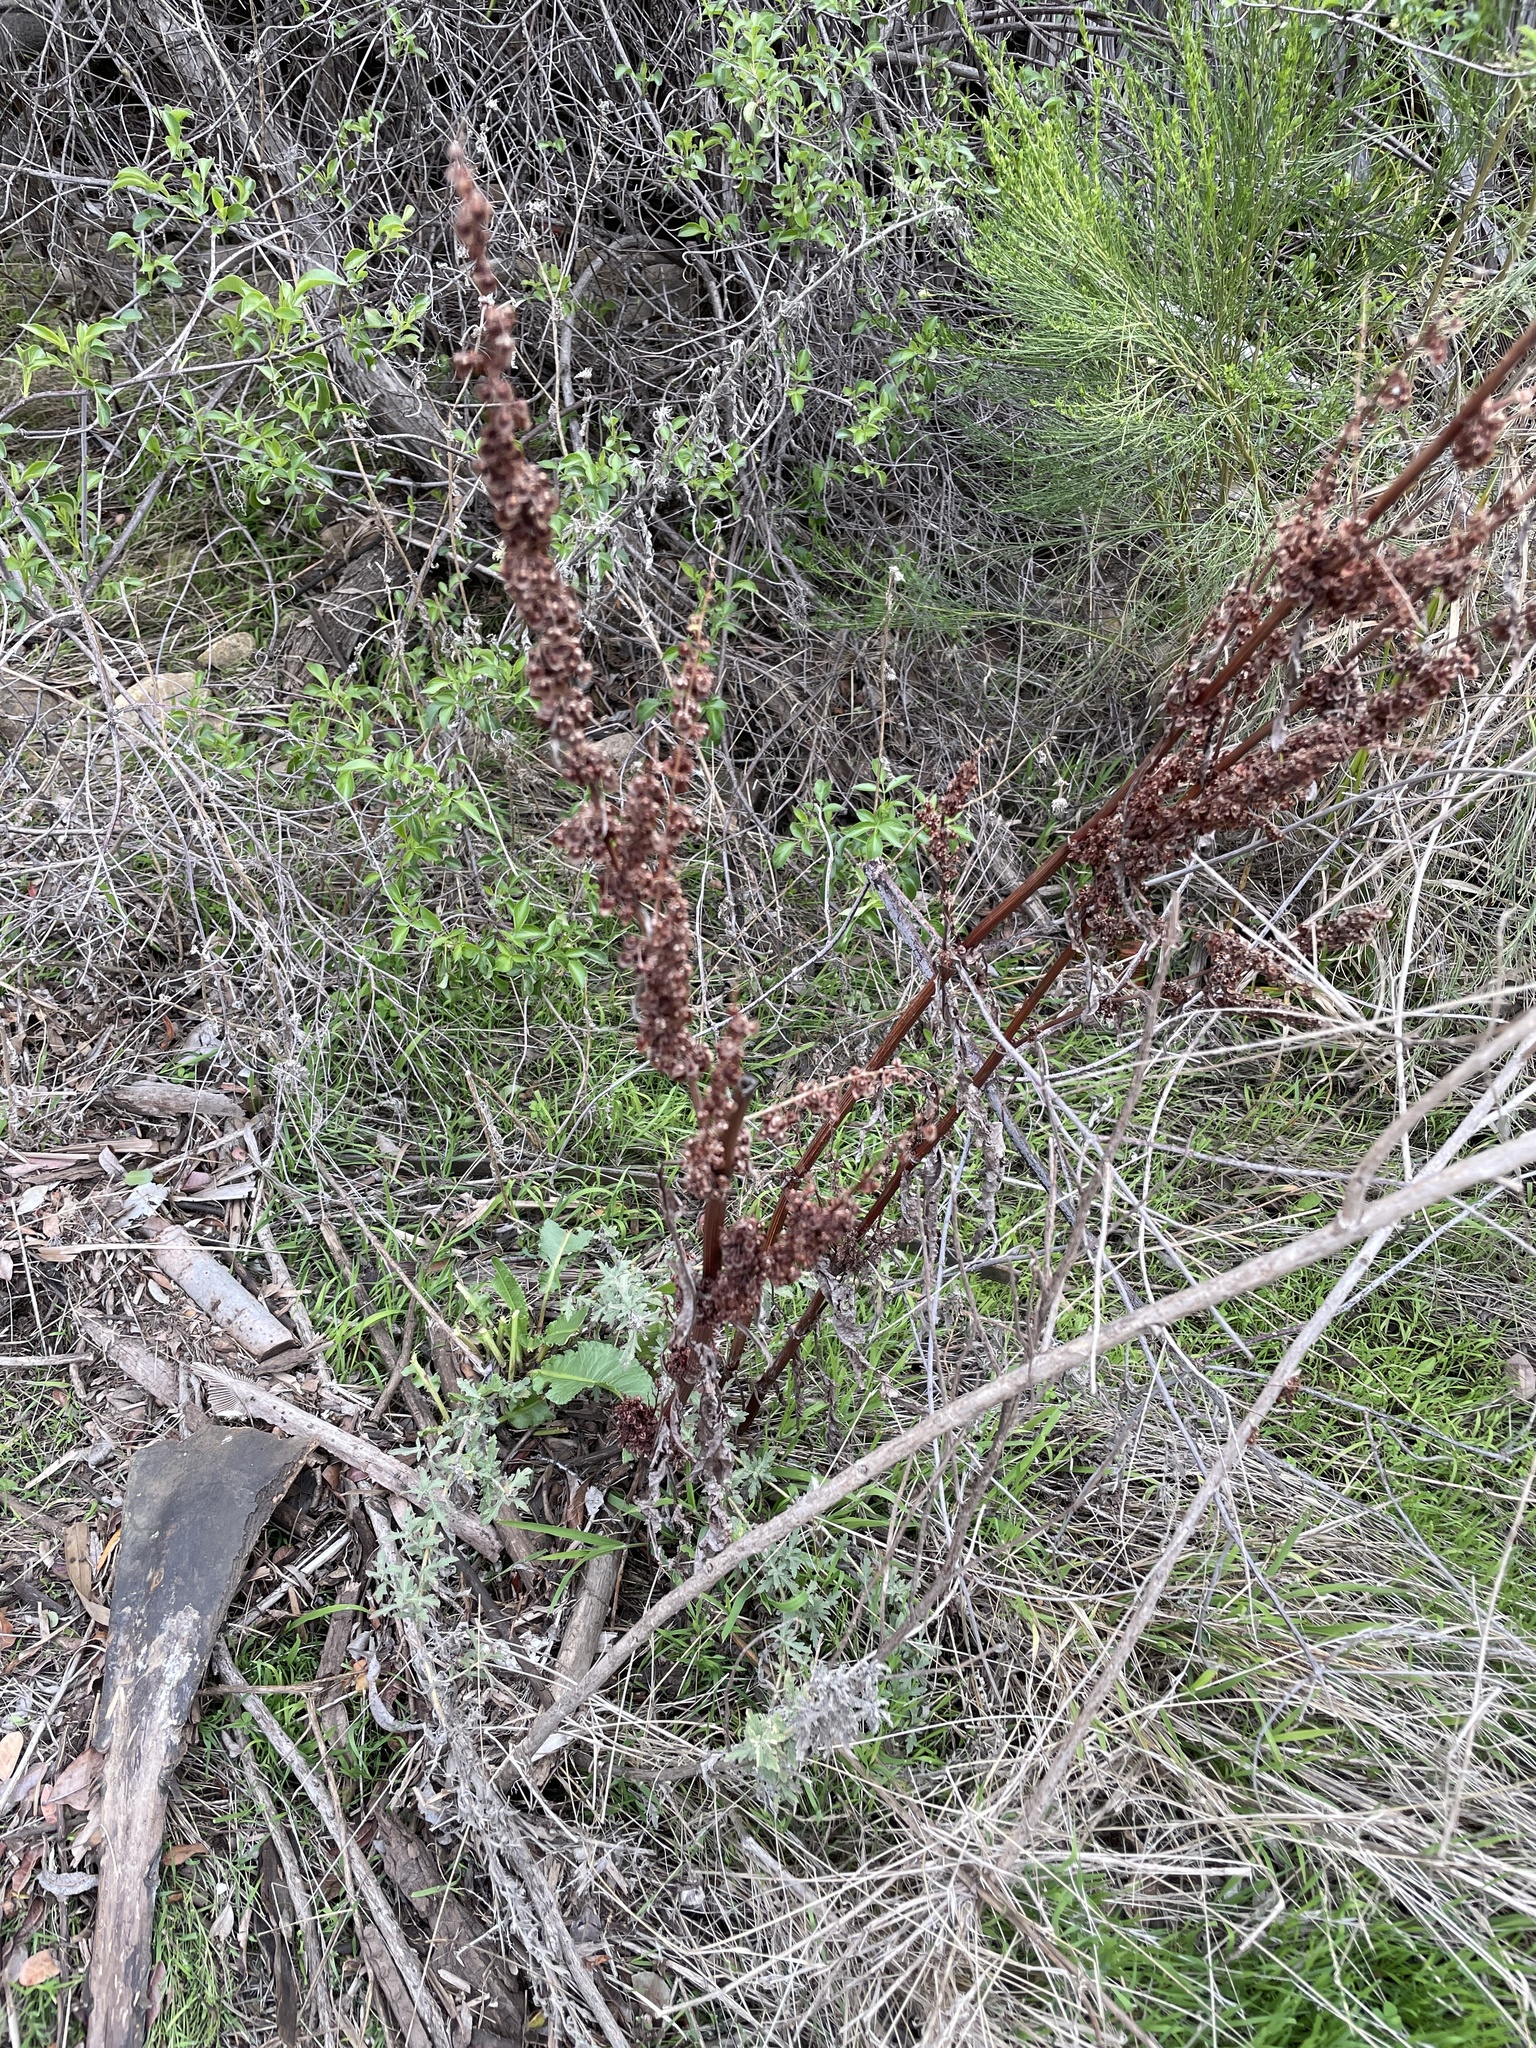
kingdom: Plantae
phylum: Tracheophyta
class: Magnoliopsida
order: Caryophyllales
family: Polygonaceae
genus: Rumex
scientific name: Rumex crispus
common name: Curled dock
